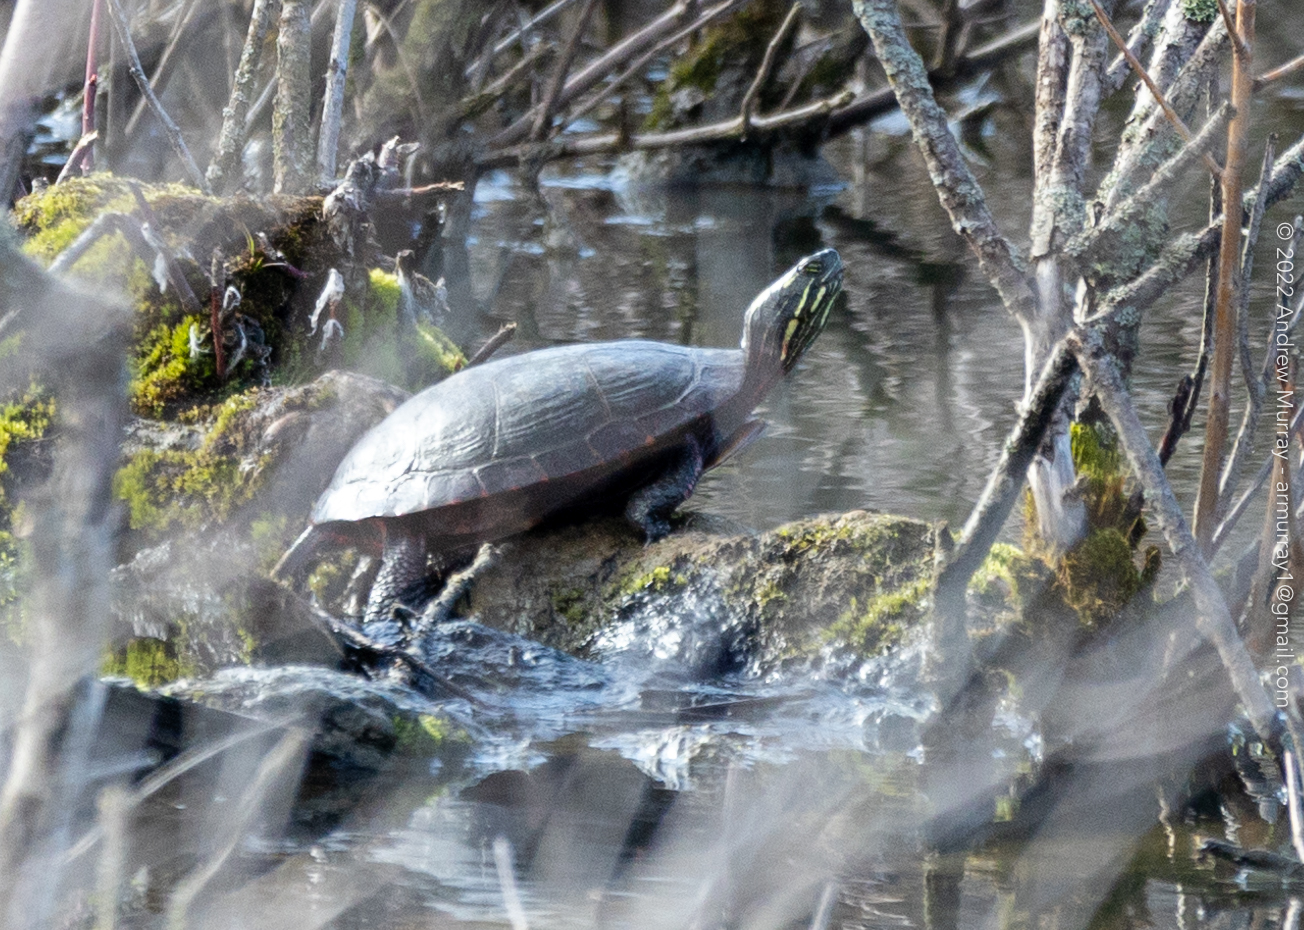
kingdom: Animalia
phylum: Chordata
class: Testudines
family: Emydidae
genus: Chrysemys
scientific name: Chrysemys picta
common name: Painted turtle
